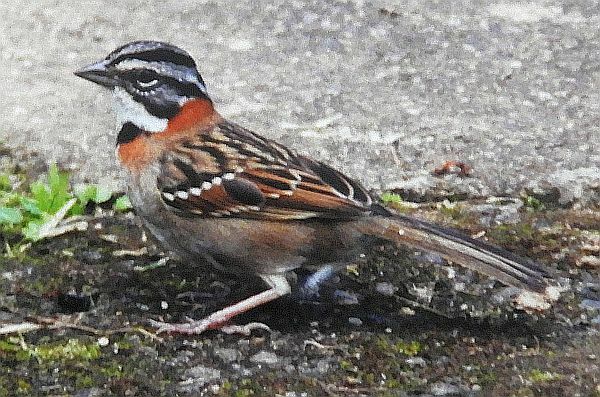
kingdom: Animalia
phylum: Chordata
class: Aves
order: Passeriformes
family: Passerellidae
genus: Zonotrichia
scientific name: Zonotrichia capensis
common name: Rufous-collared sparrow
